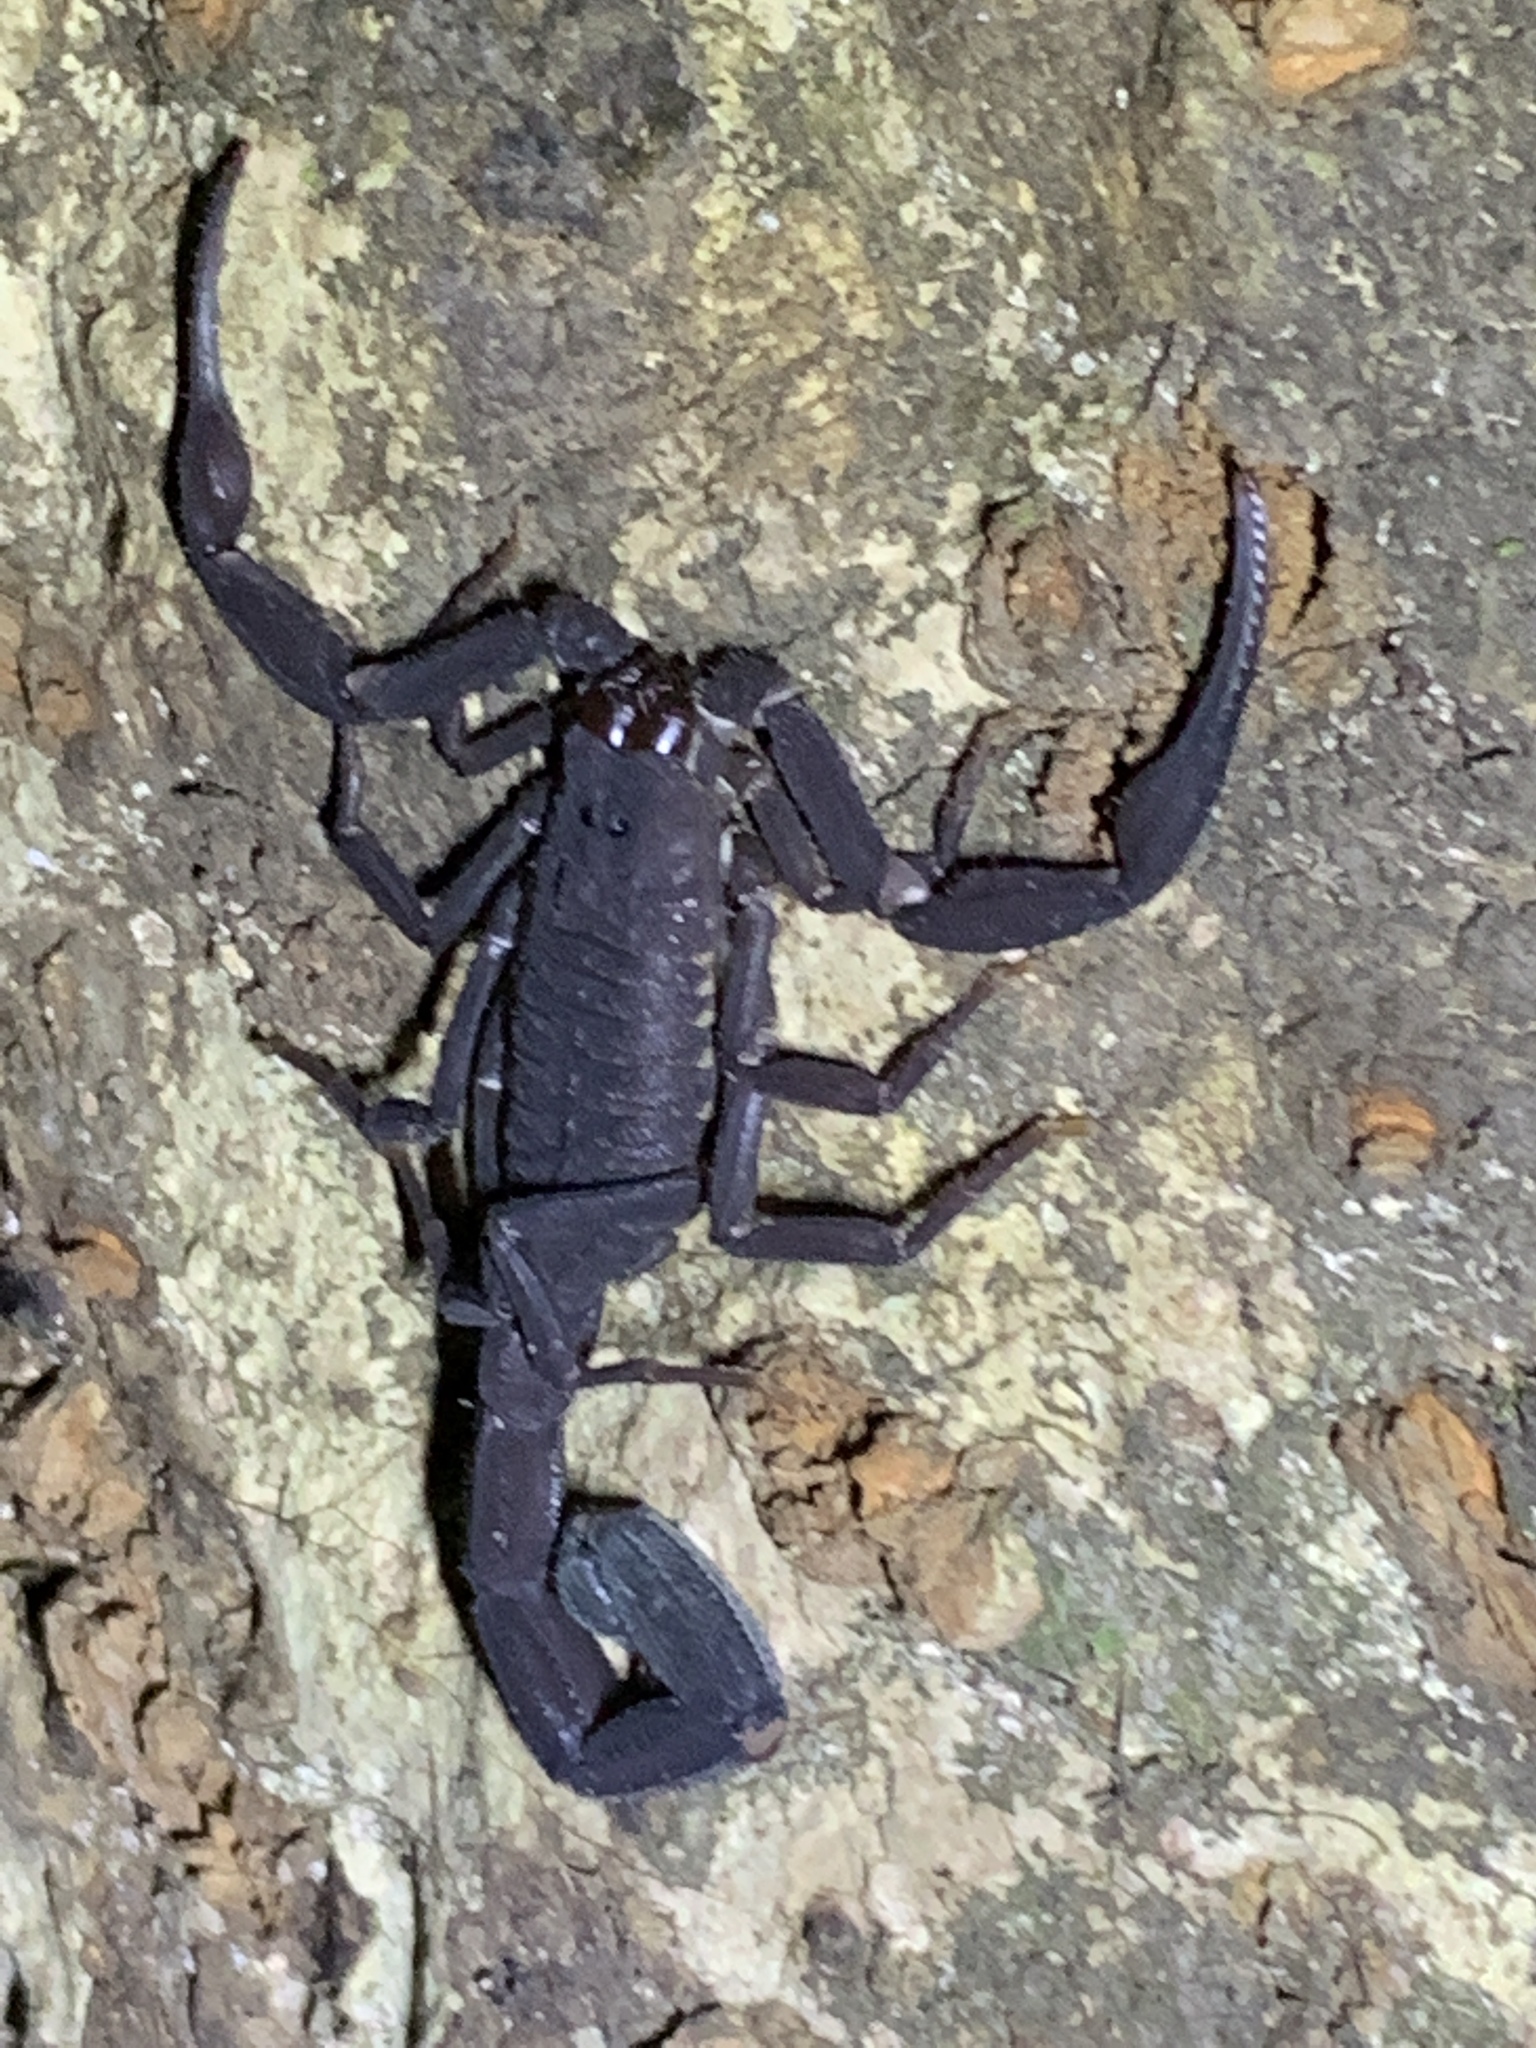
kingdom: Animalia
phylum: Arthropoda
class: Arachnida
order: Scorpiones
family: Buthidae
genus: Tityus
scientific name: Tityus pachyurus
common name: Scorpions
